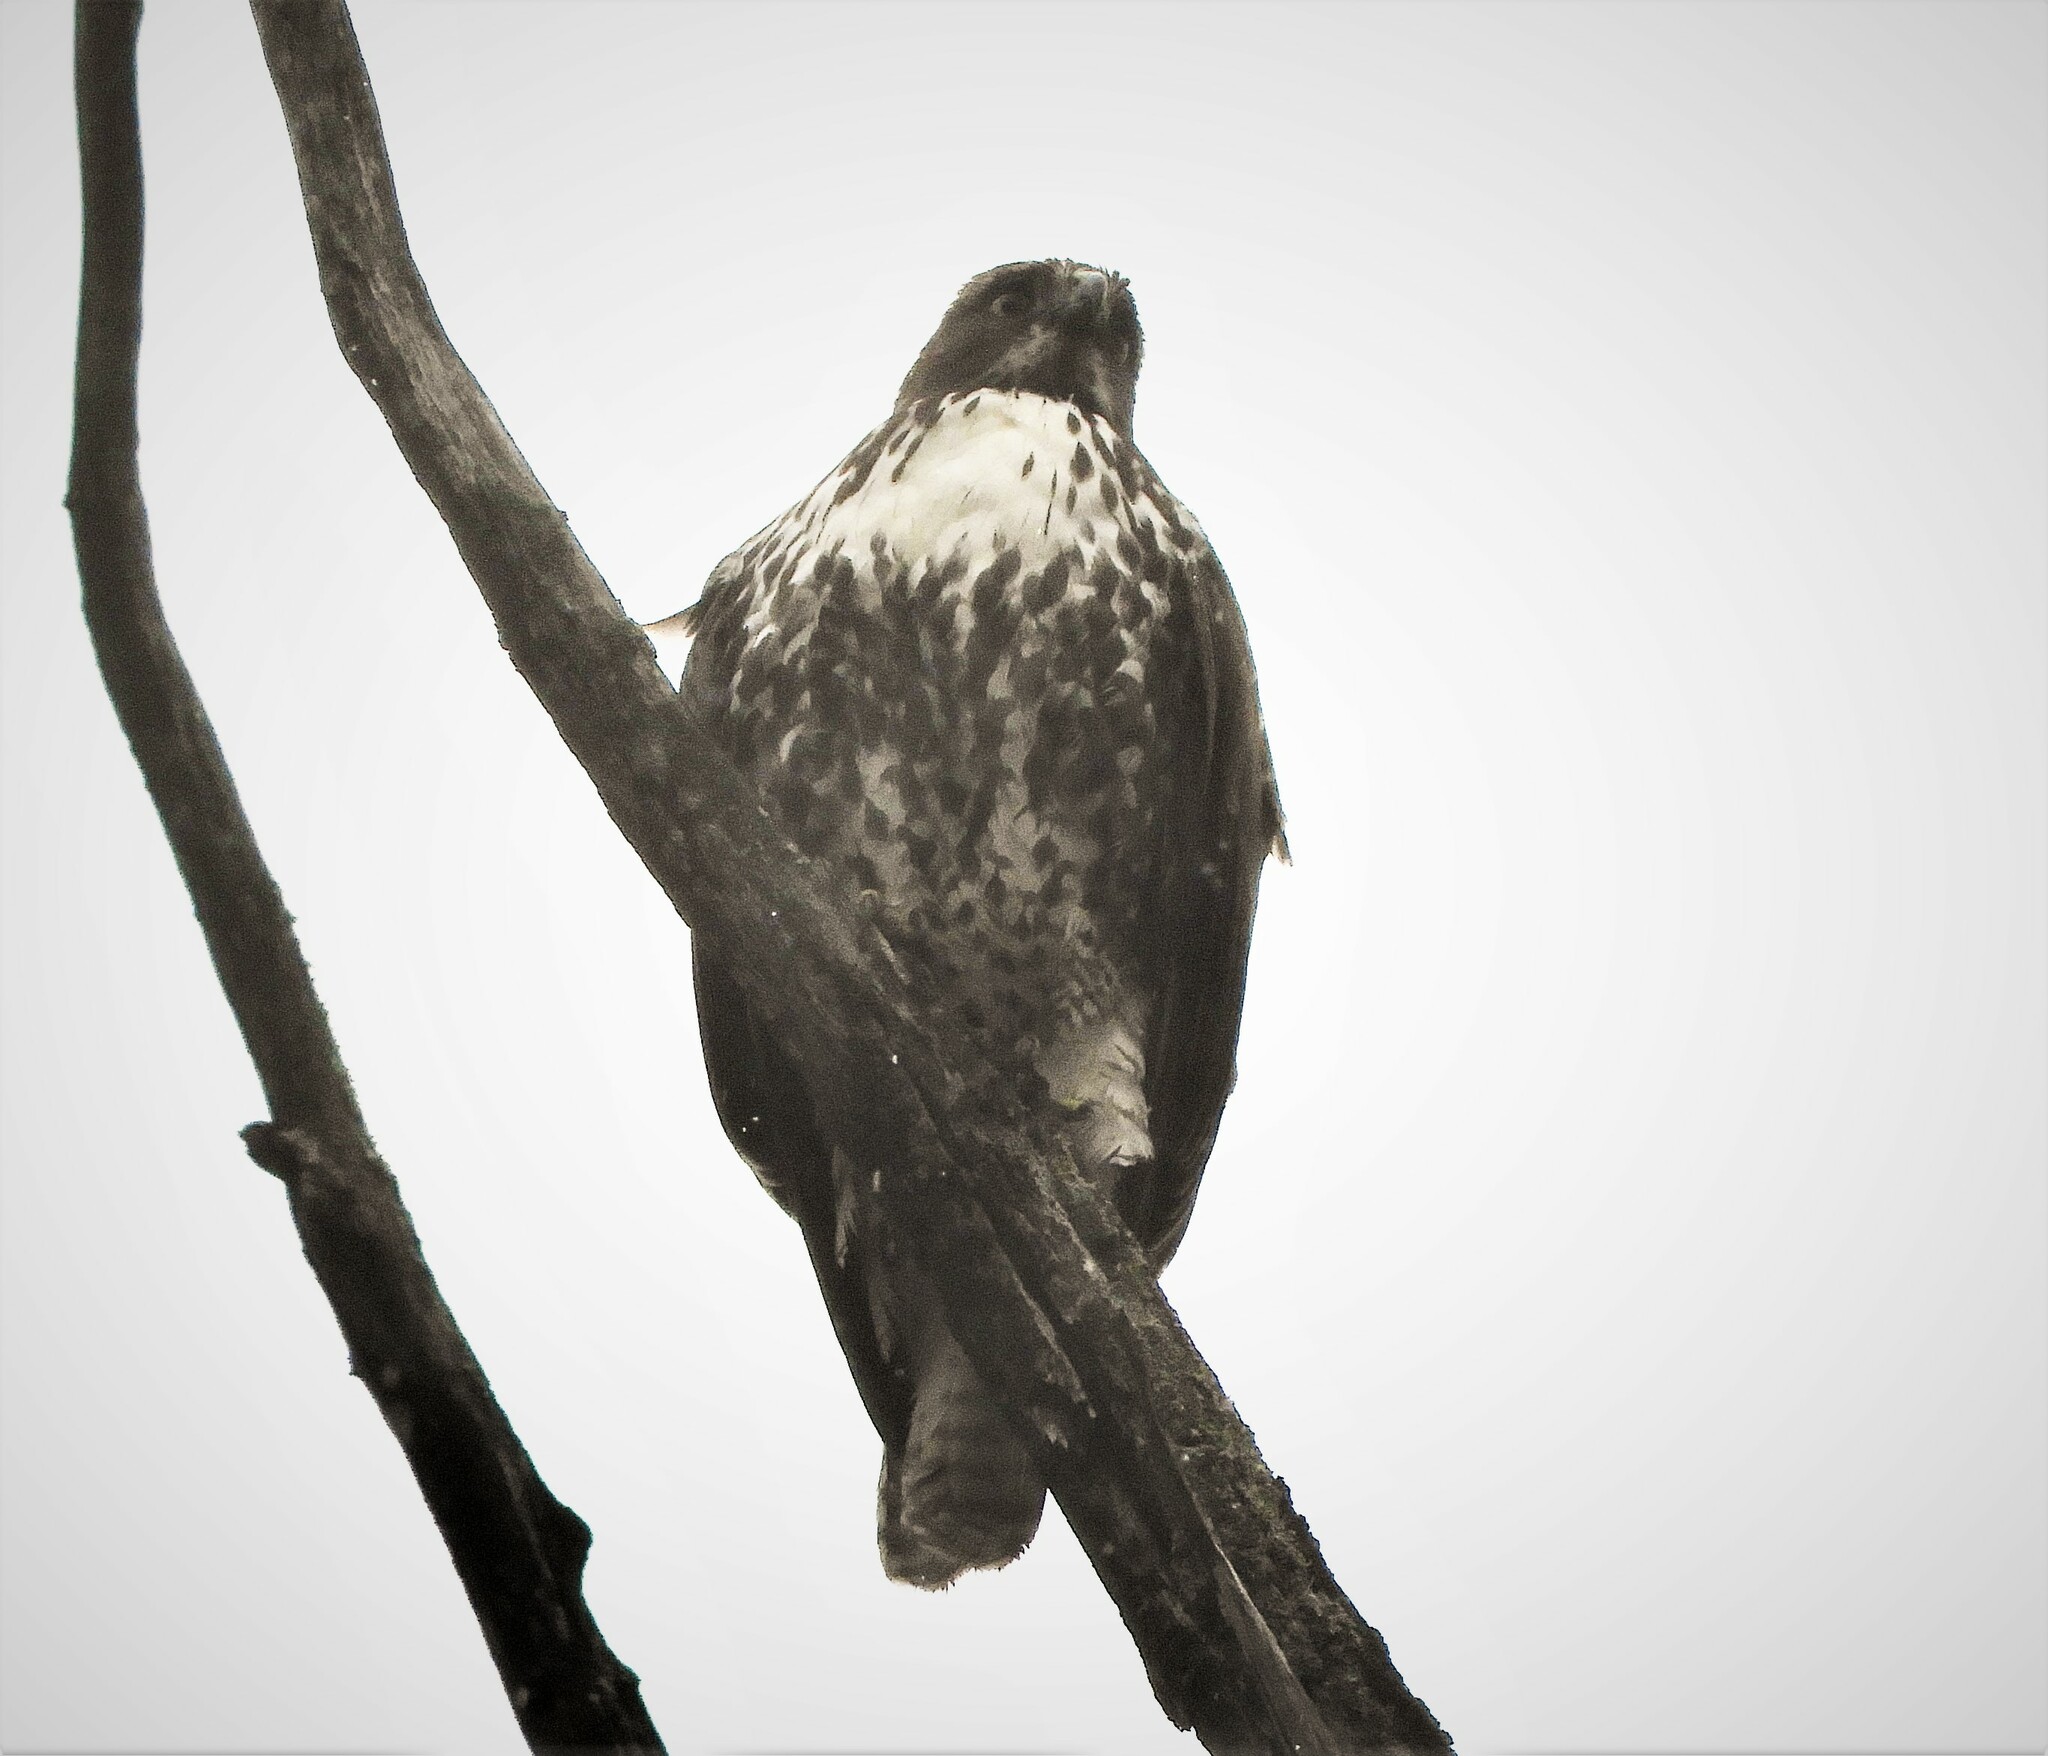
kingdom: Animalia
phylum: Chordata
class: Aves
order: Accipitriformes
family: Accipitridae
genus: Buteo
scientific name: Buteo jamaicensis
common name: Red-tailed hawk
